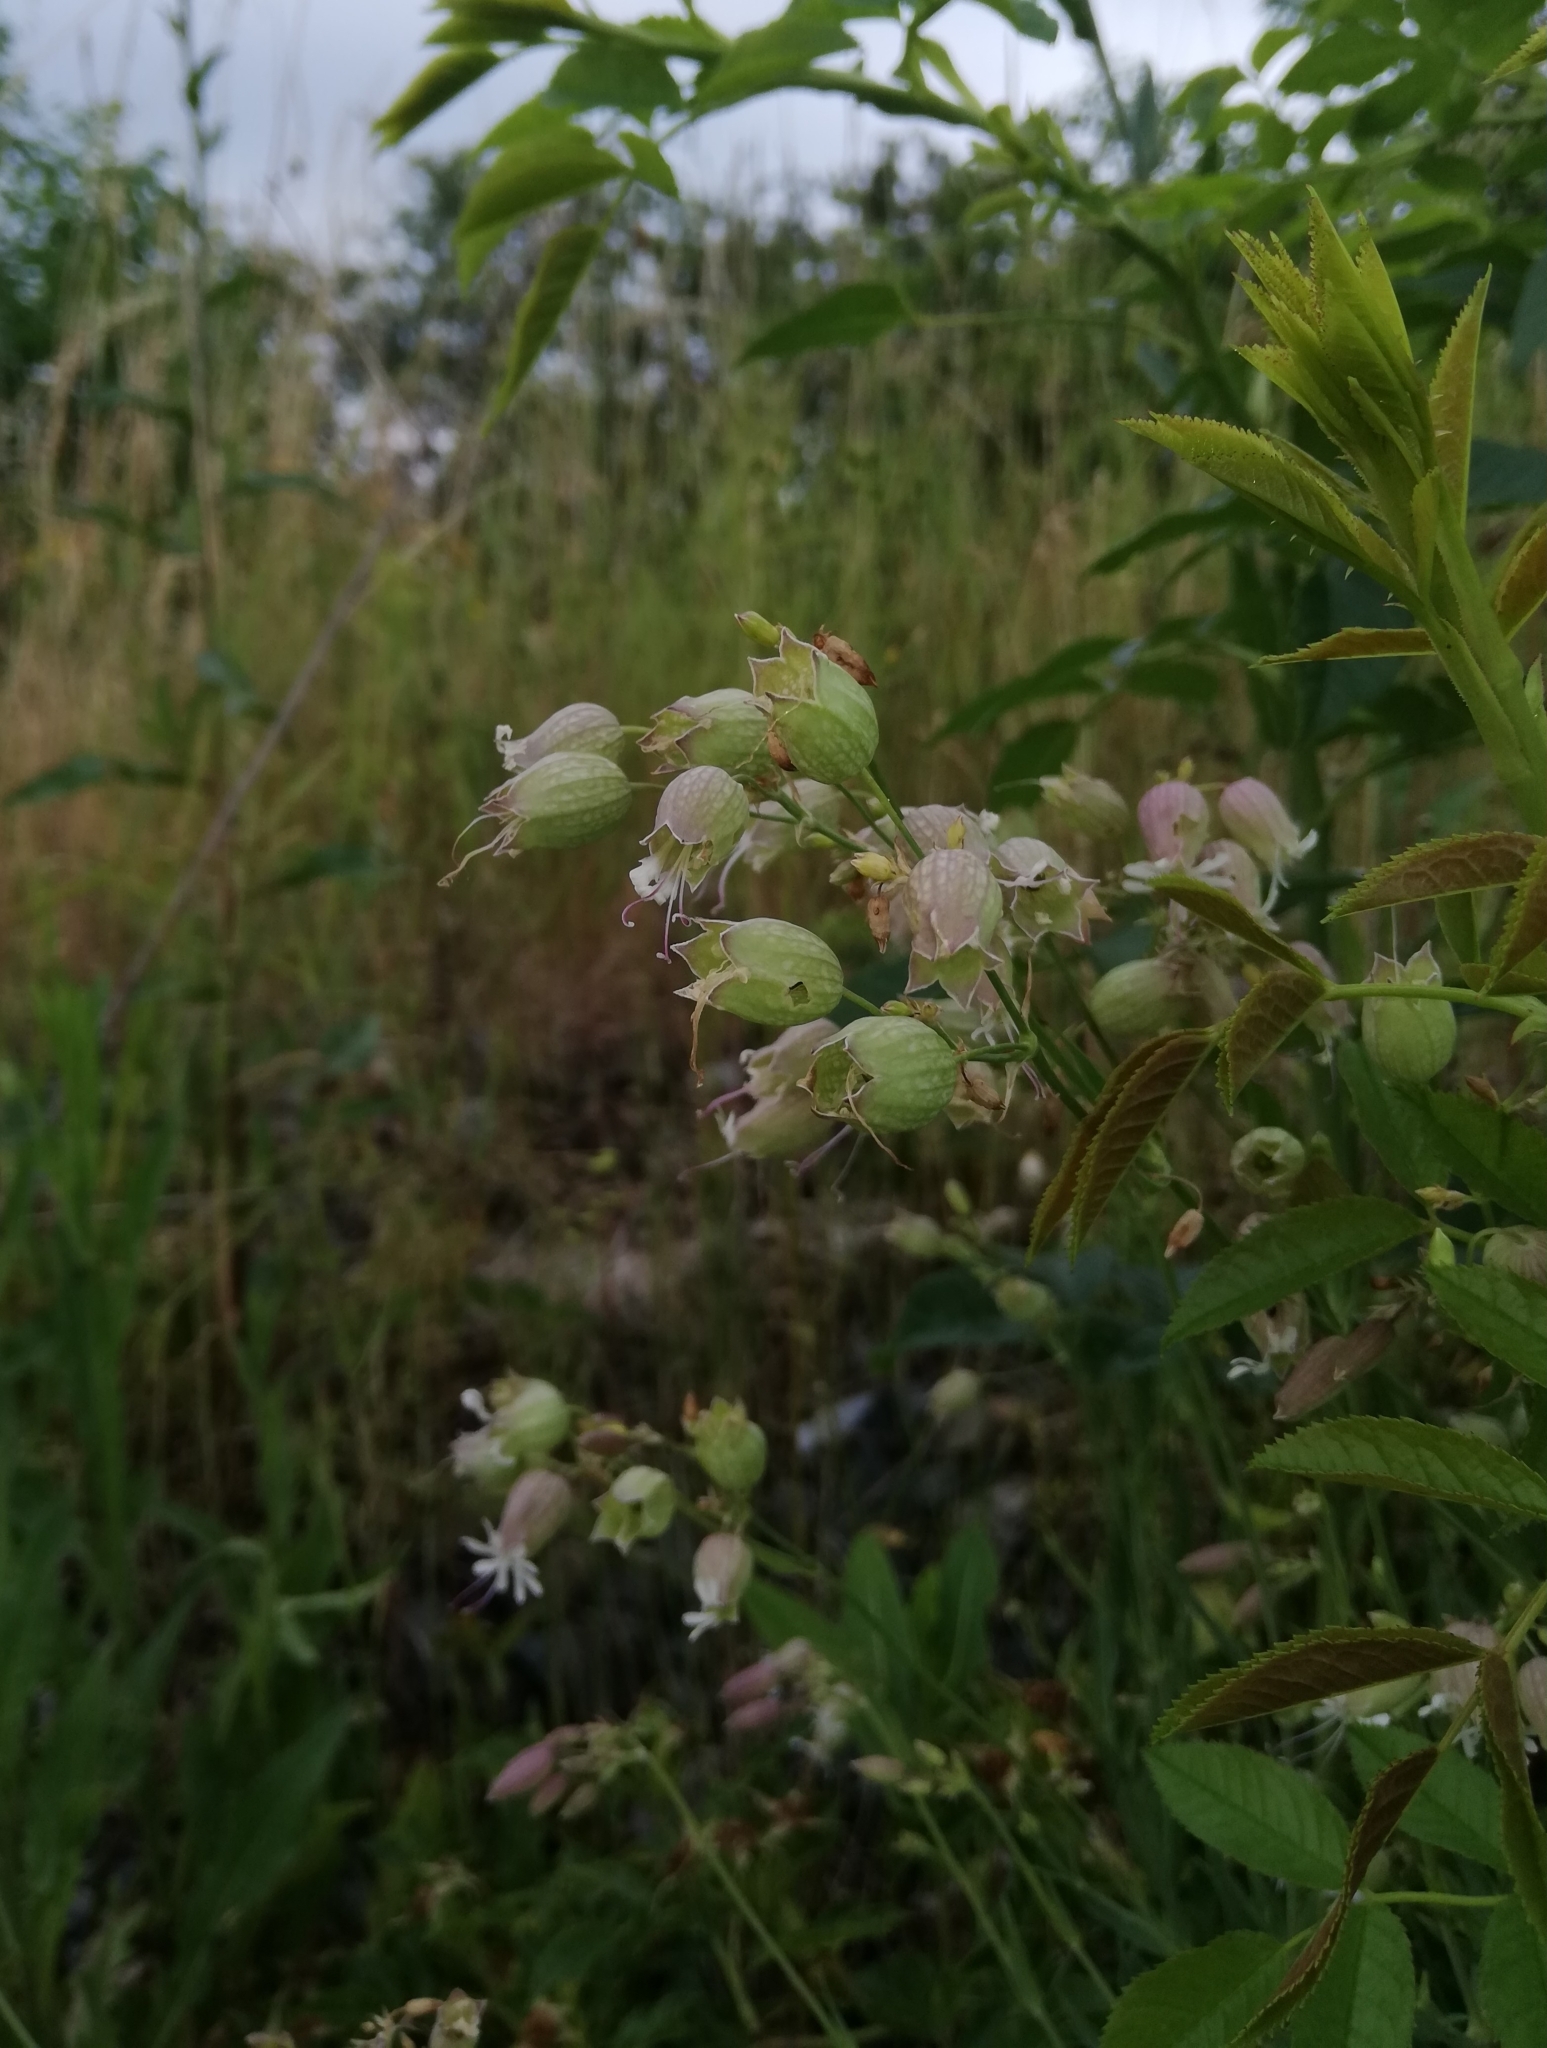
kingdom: Plantae
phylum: Tracheophyta
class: Magnoliopsida
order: Caryophyllales
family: Caryophyllaceae
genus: Silene
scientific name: Silene vulgaris
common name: Bladder campion
